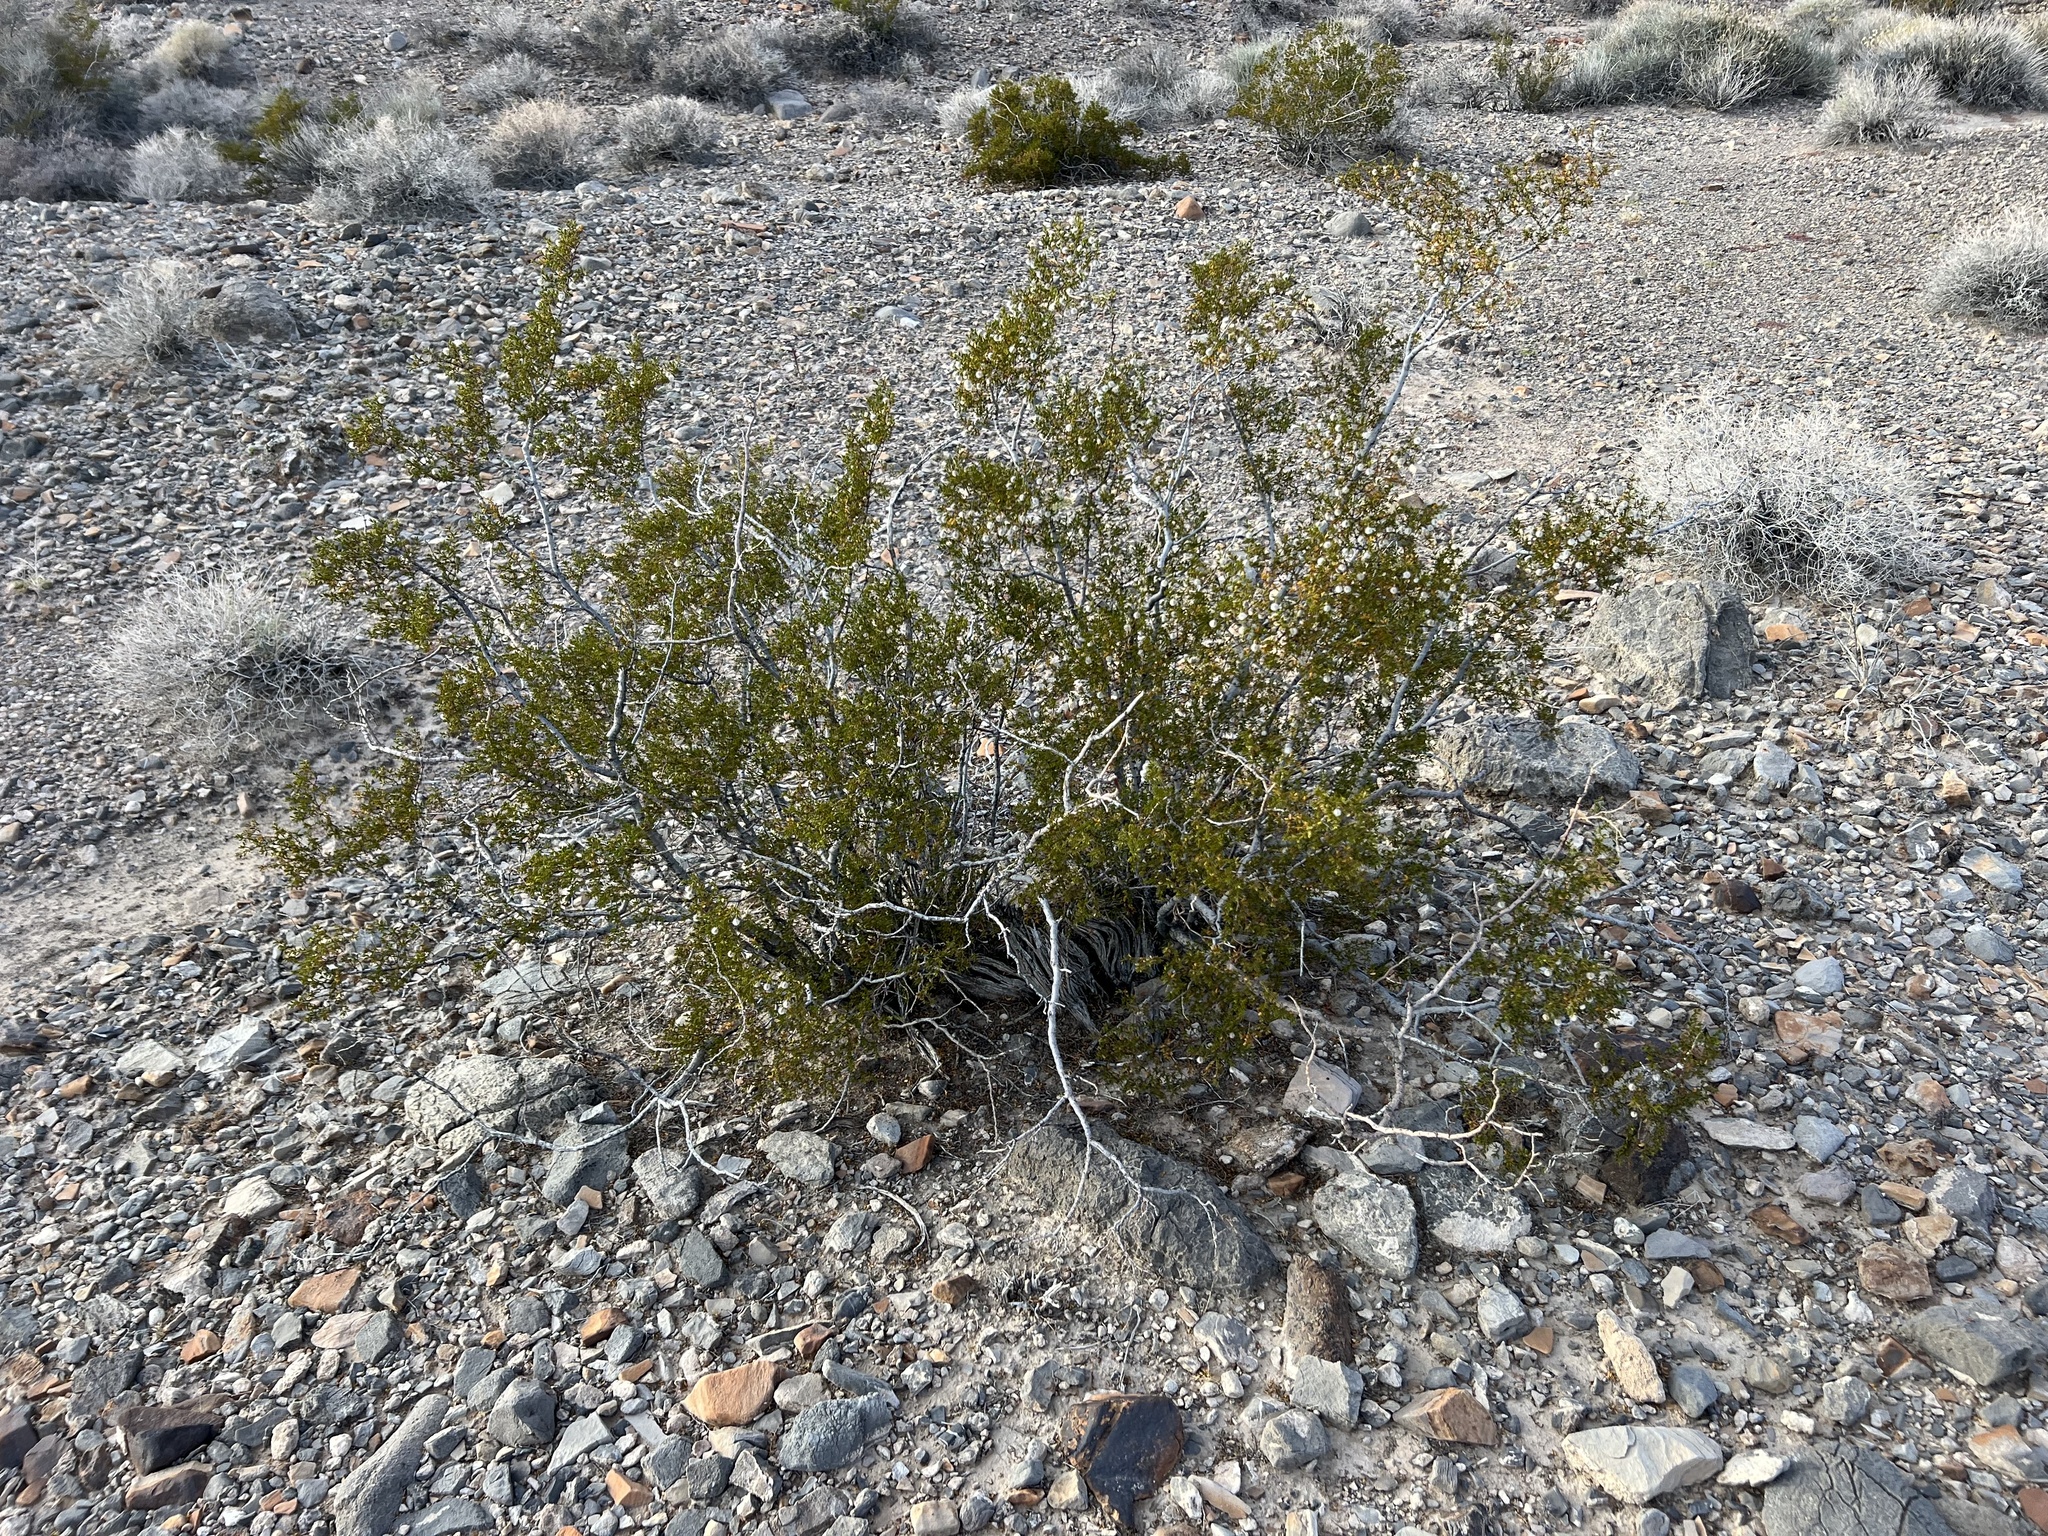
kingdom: Plantae
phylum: Tracheophyta
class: Magnoliopsida
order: Zygophyllales
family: Zygophyllaceae
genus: Larrea
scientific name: Larrea tridentata
